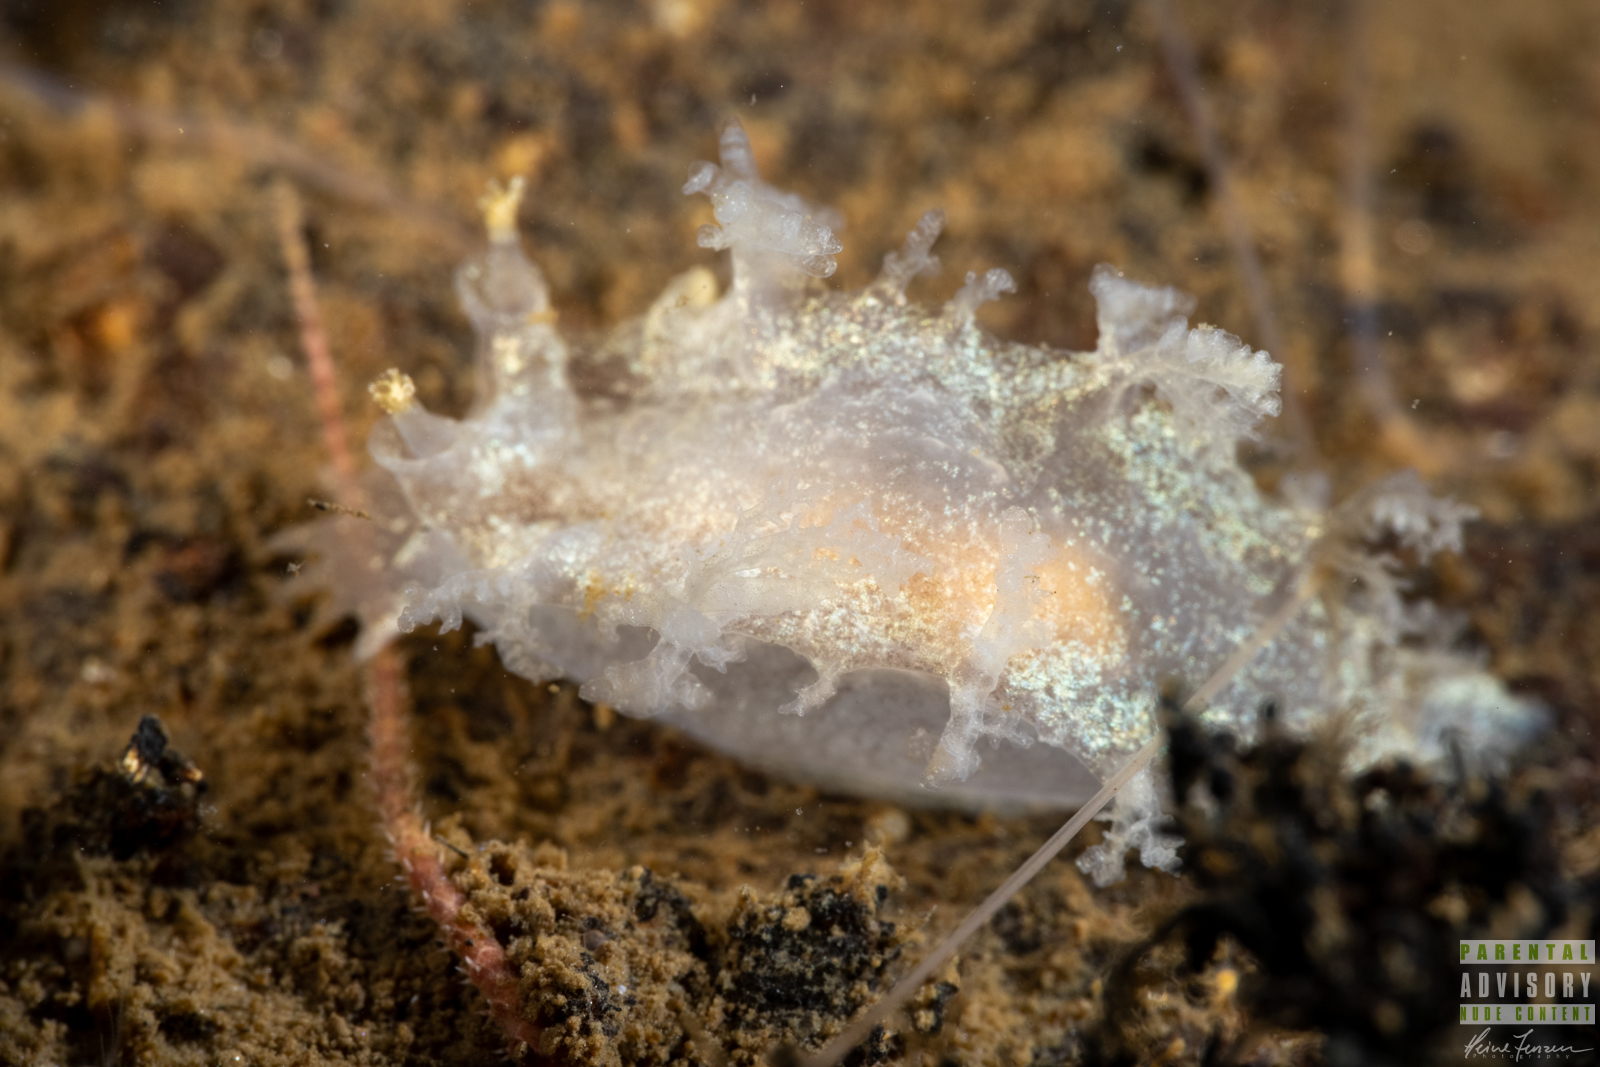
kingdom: Animalia
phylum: Mollusca
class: Gastropoda
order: Nudibranchia
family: Tritoniidae
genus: Duvaucelia
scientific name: Duvaucelia plebeia
